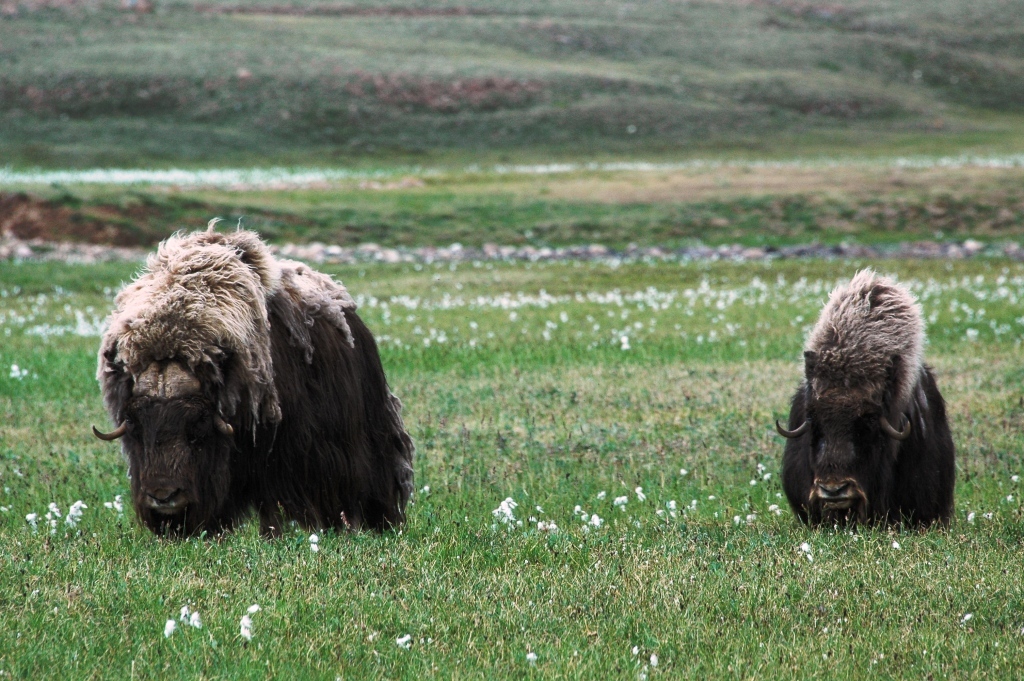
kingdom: Animalia
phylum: Chordata
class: Mammalia
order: Artiodactyla
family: Bovidae
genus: Ovibos
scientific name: Ovibos moschatus
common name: Muskox
